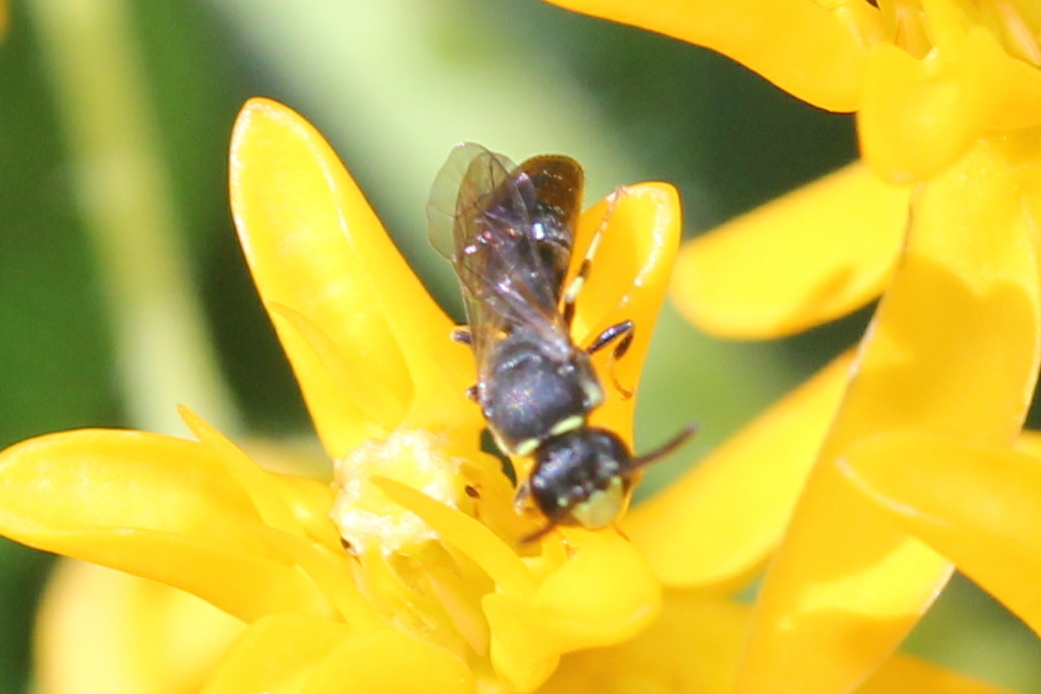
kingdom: Animalia
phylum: Arthropoda
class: Insecta
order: Hymenoptera
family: Colletidae
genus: Hylaeus
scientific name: Hylaeus modestus
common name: Yellow-faced bee
